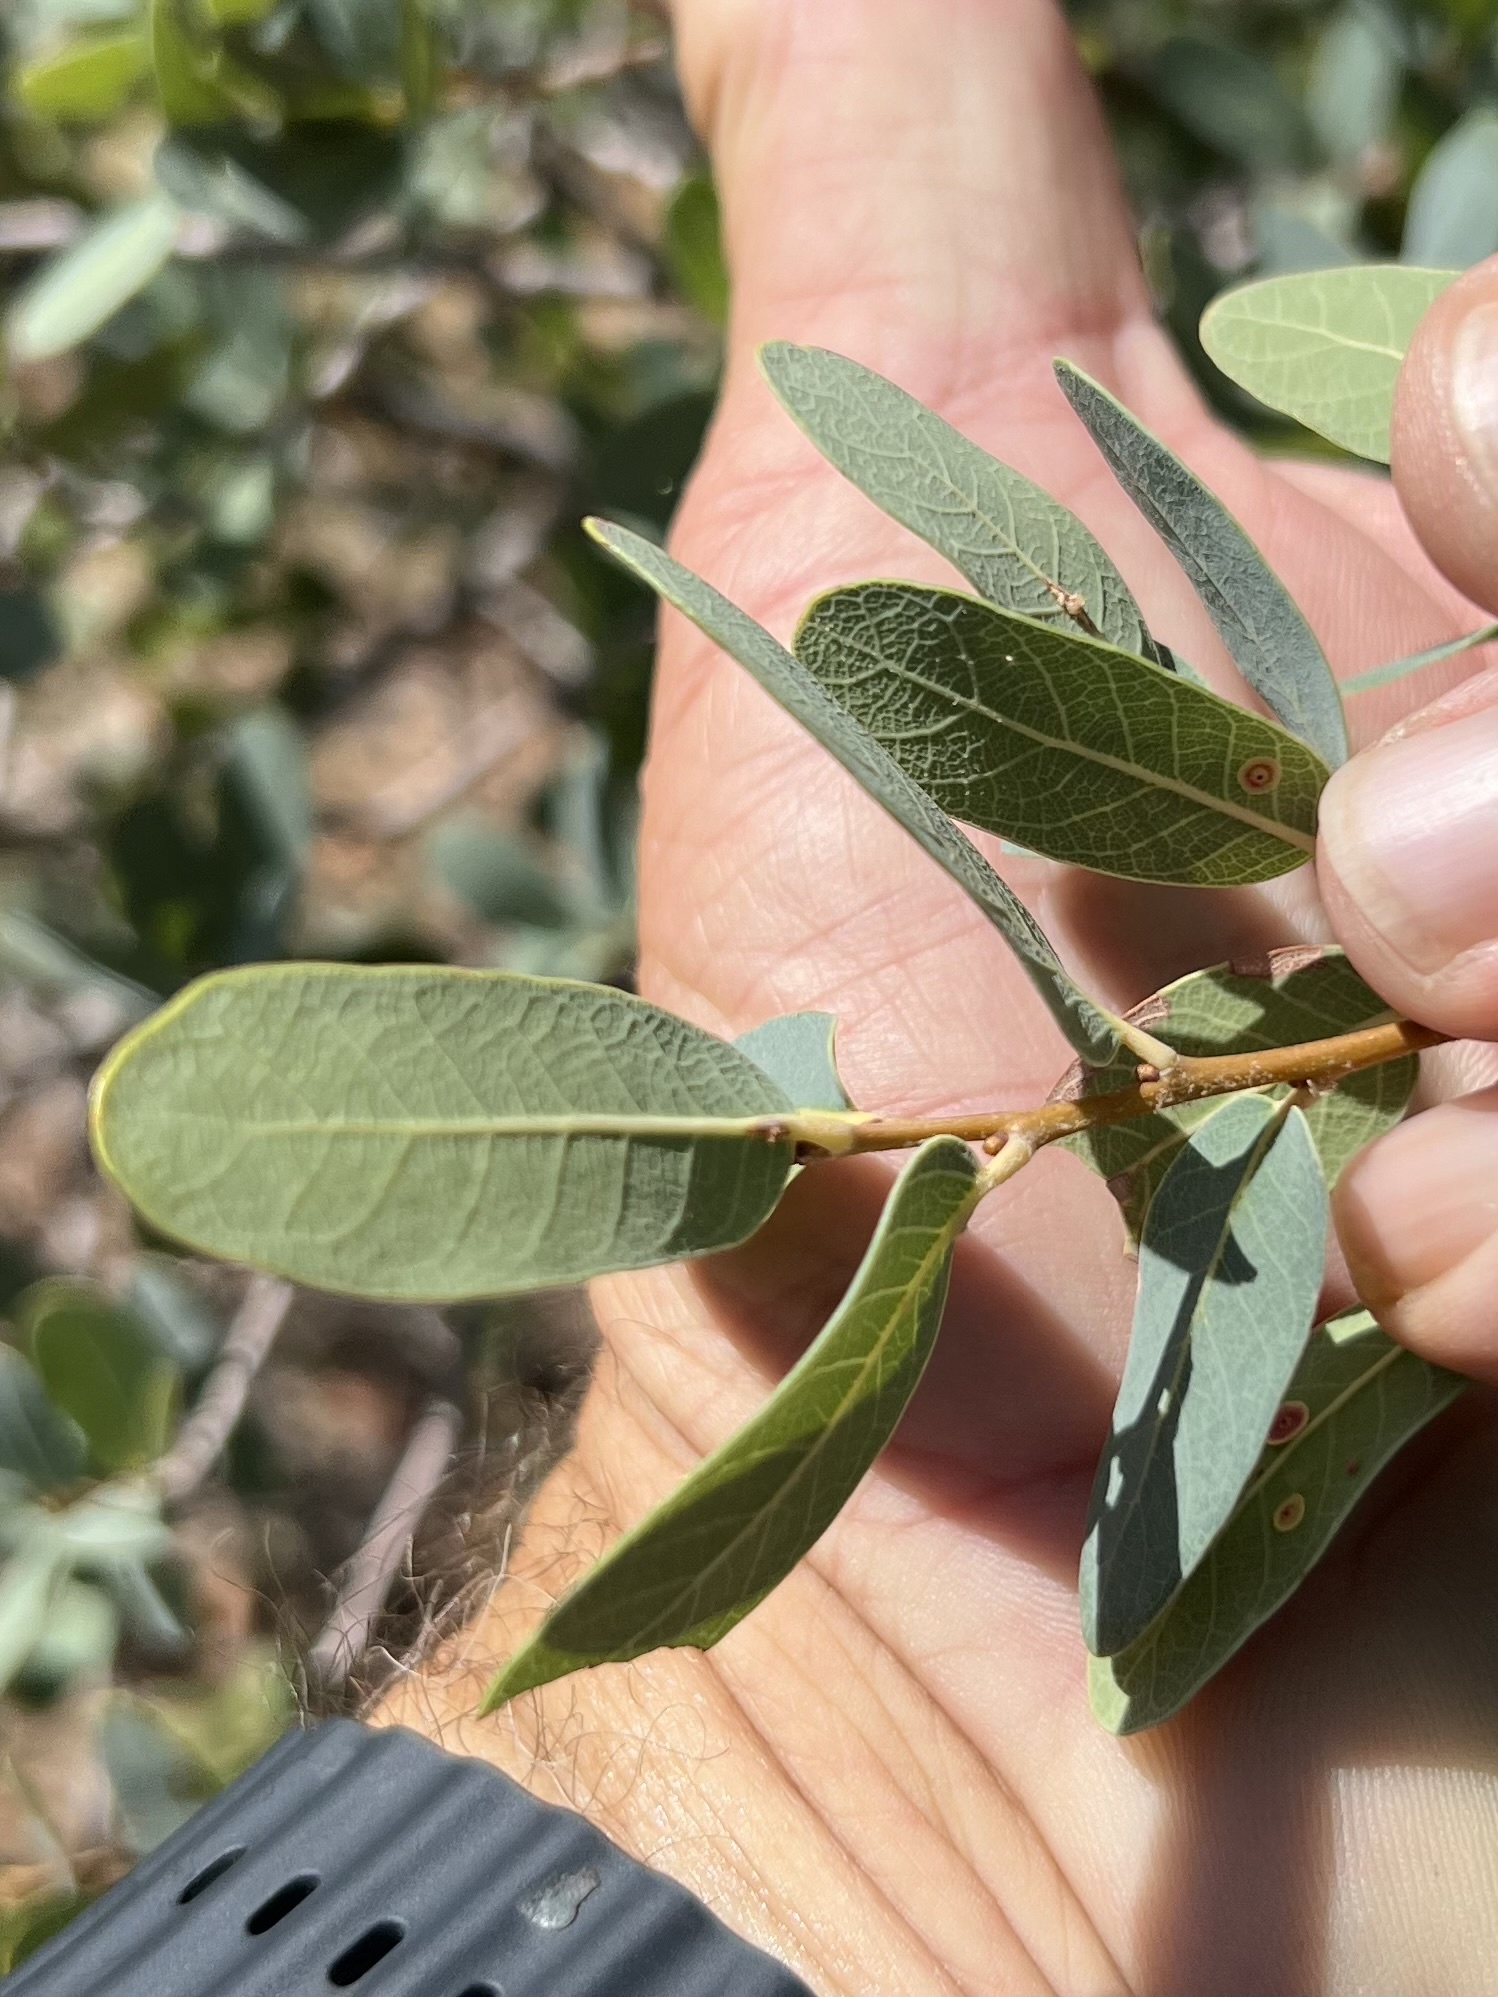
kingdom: Plantae
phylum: Tracheophyta
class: Magnoliopsida
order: Fagales
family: Fagaceae
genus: Quercus
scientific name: Quercus oblongifolia
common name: Mexican blue oak
